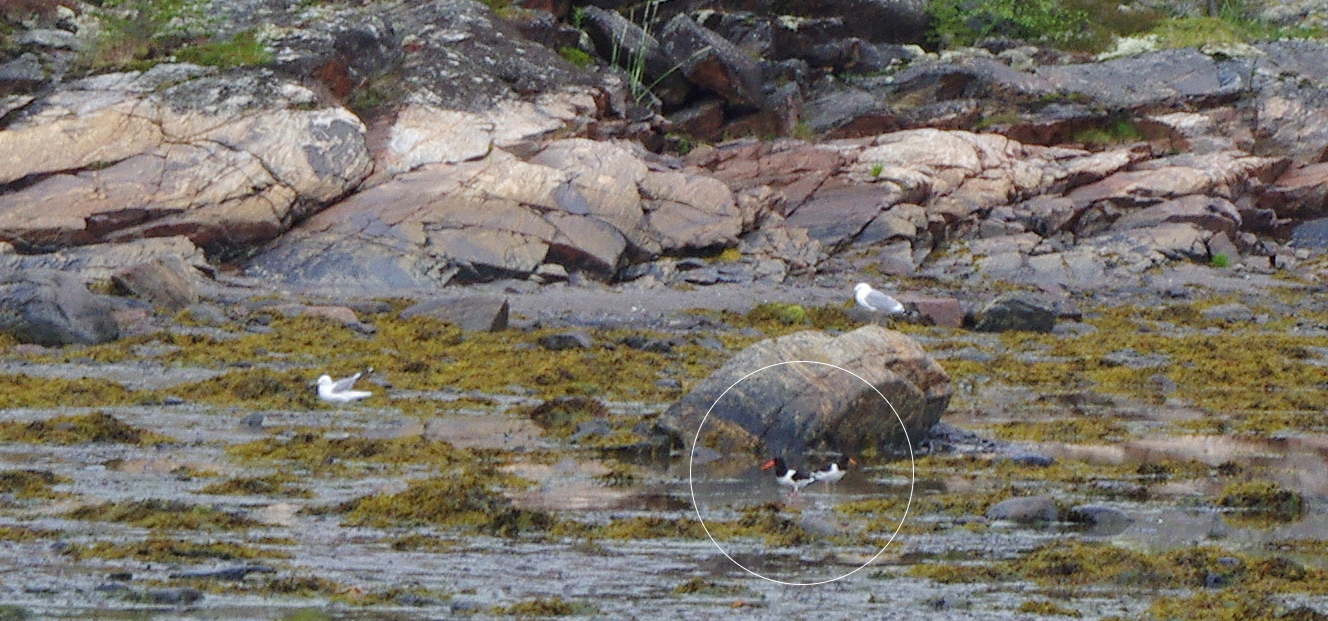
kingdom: Animalia
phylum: Chordata
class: Aves
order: Charadriiformes
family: Haematopodidae
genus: Haematopus
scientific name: Haematopus ostralegus
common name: Eurasian oystercatcher
